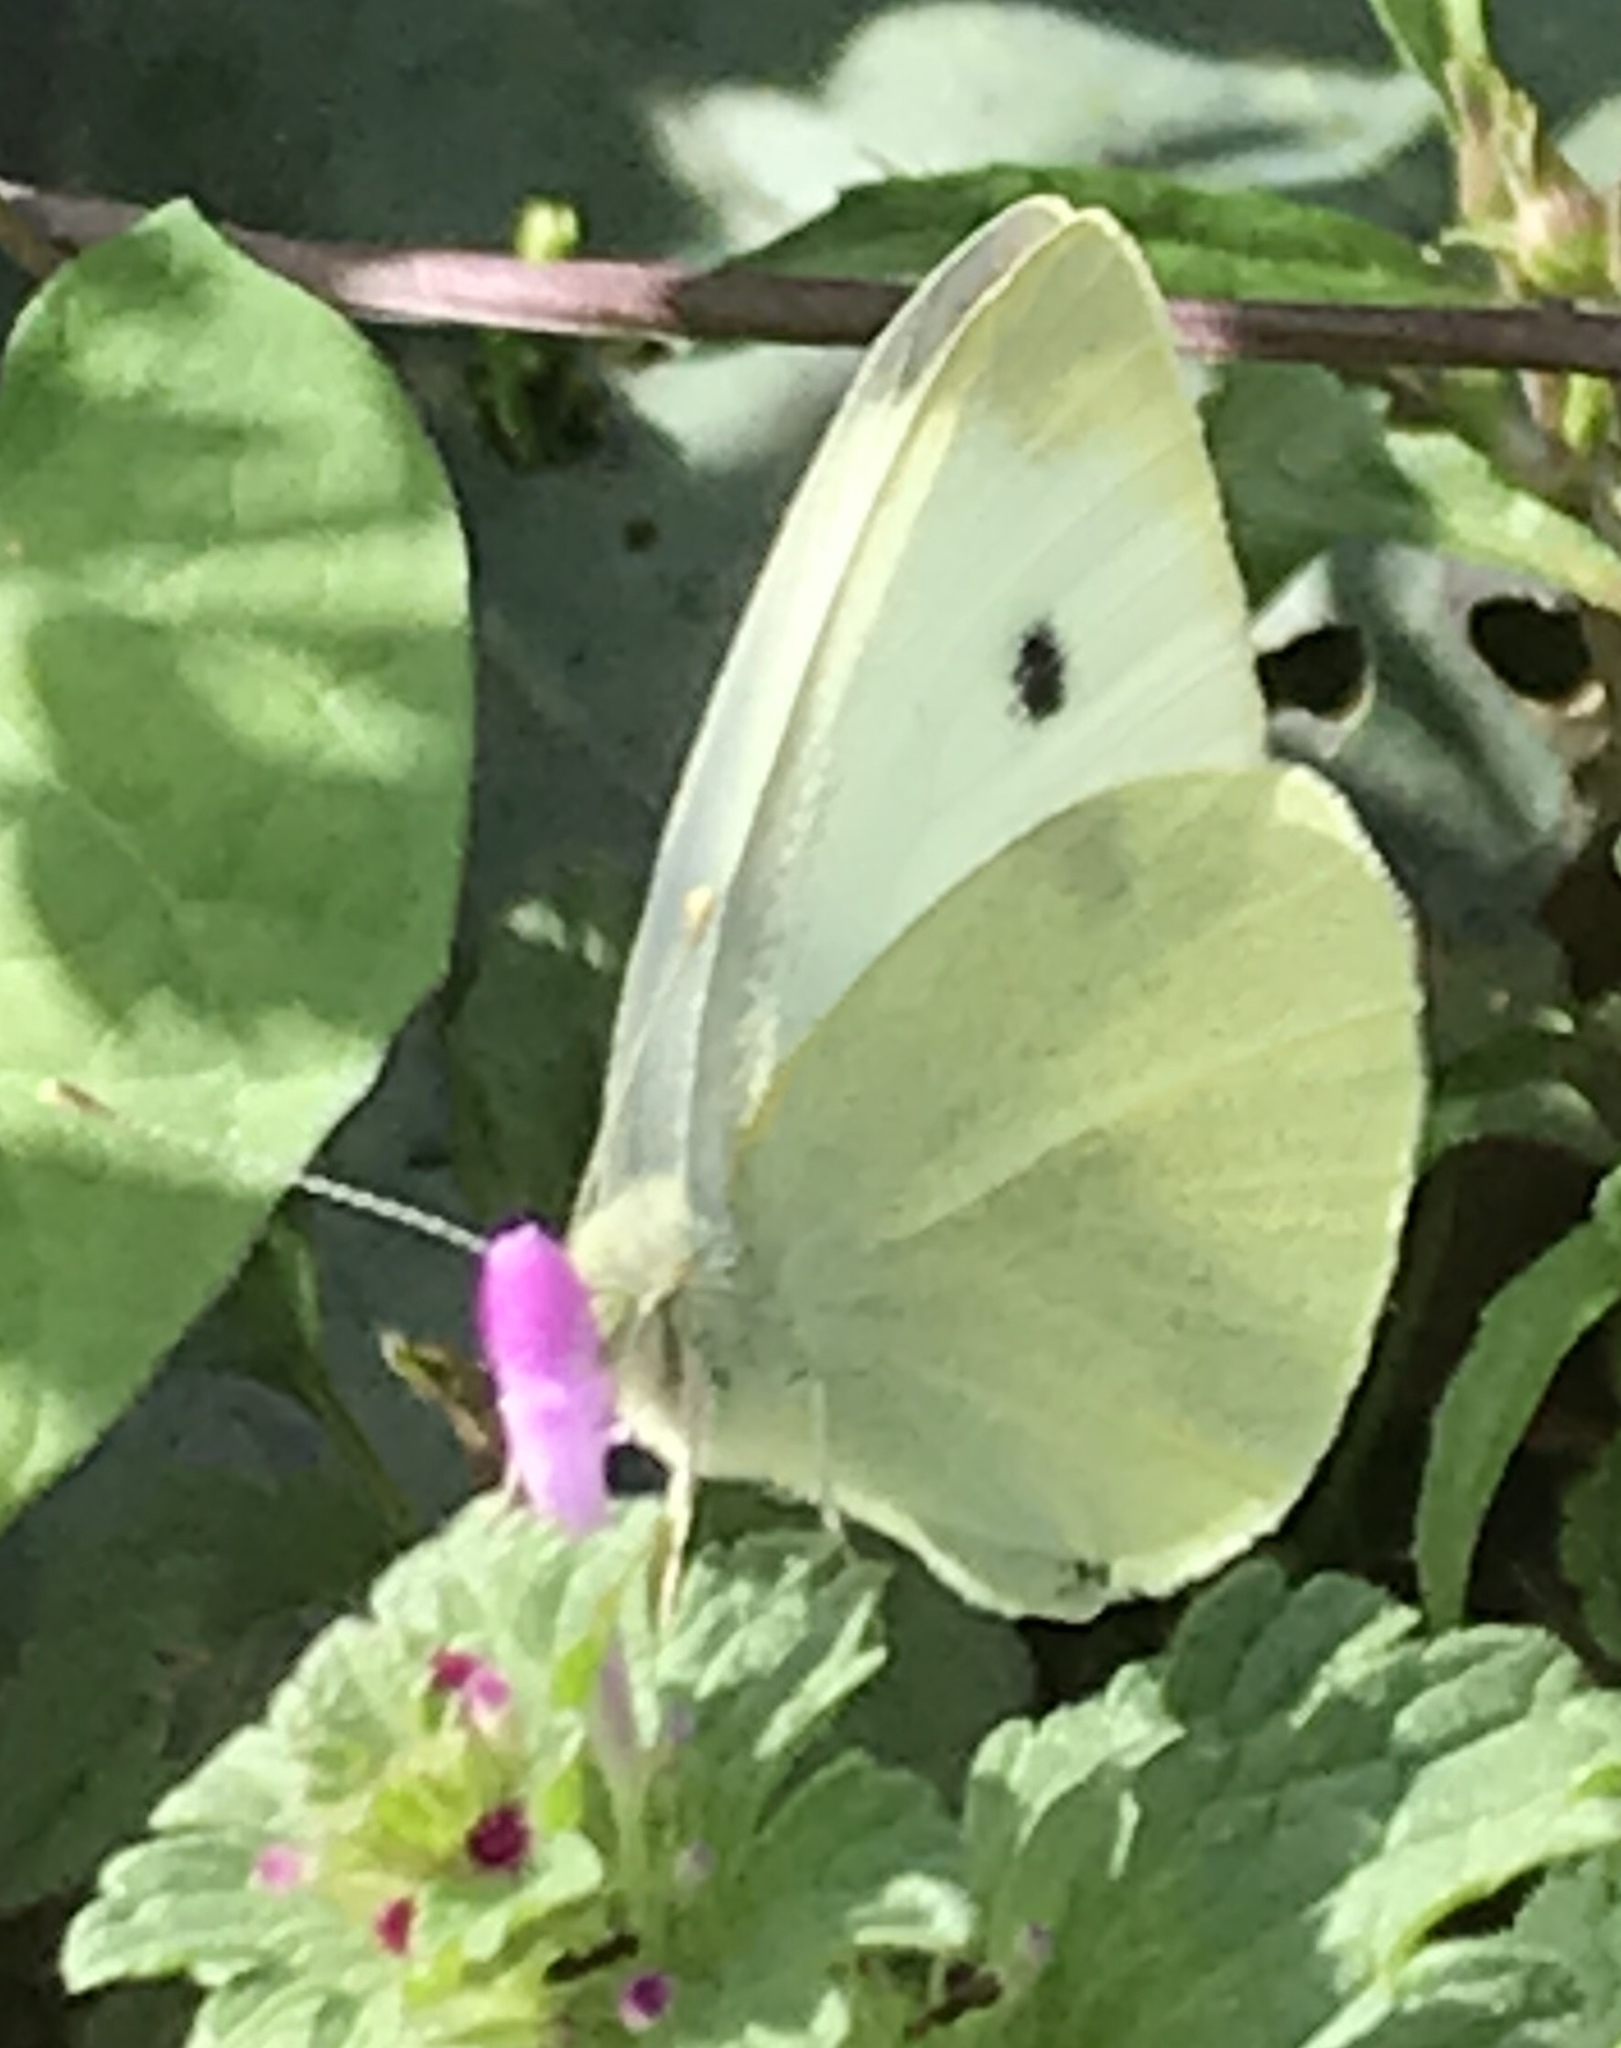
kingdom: Animalia
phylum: Arthropoda
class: Insecta
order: Lepidoptera
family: Pieridae
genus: Pieris
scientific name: Pieris rapae
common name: Small white
